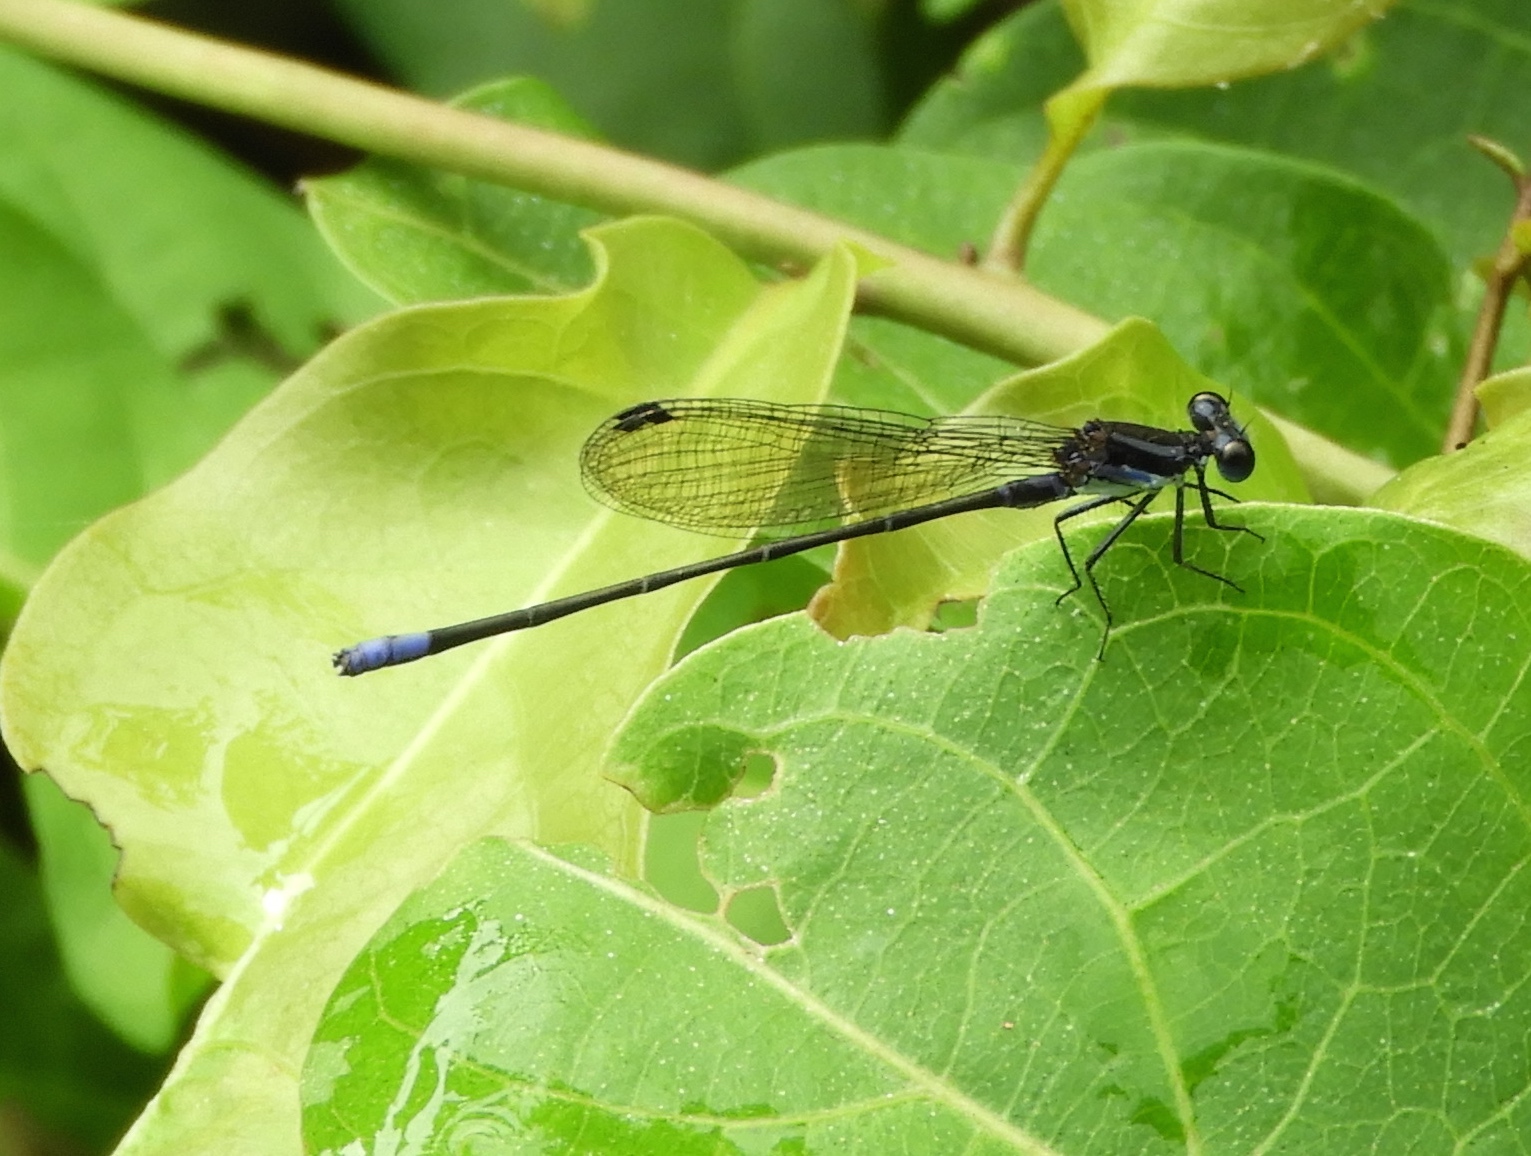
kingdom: Animalia
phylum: Arthropoda
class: Insecta
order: Odonata
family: Coenagrionidae
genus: Argia
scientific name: Argia
